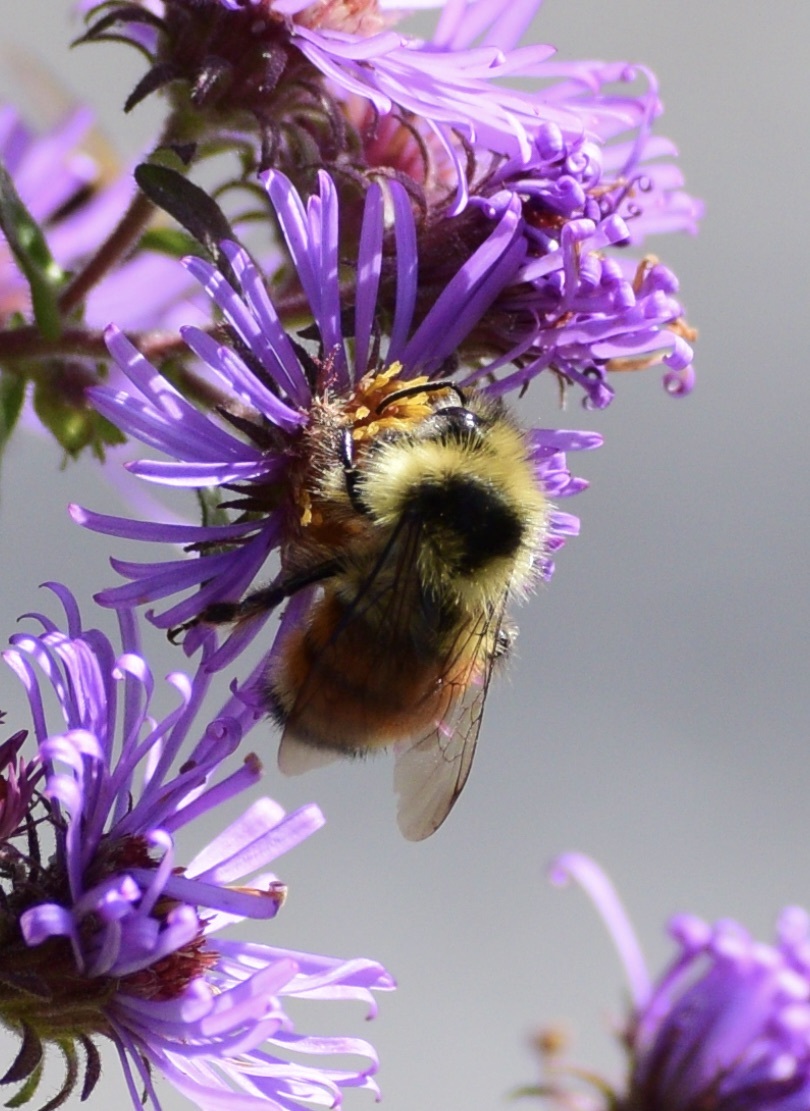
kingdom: Animalia
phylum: Arthropoda
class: Insecta
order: Hymenoptera
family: Apidae
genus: Bombus
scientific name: Bombus ternarius
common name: Tri-colored bumble bee
